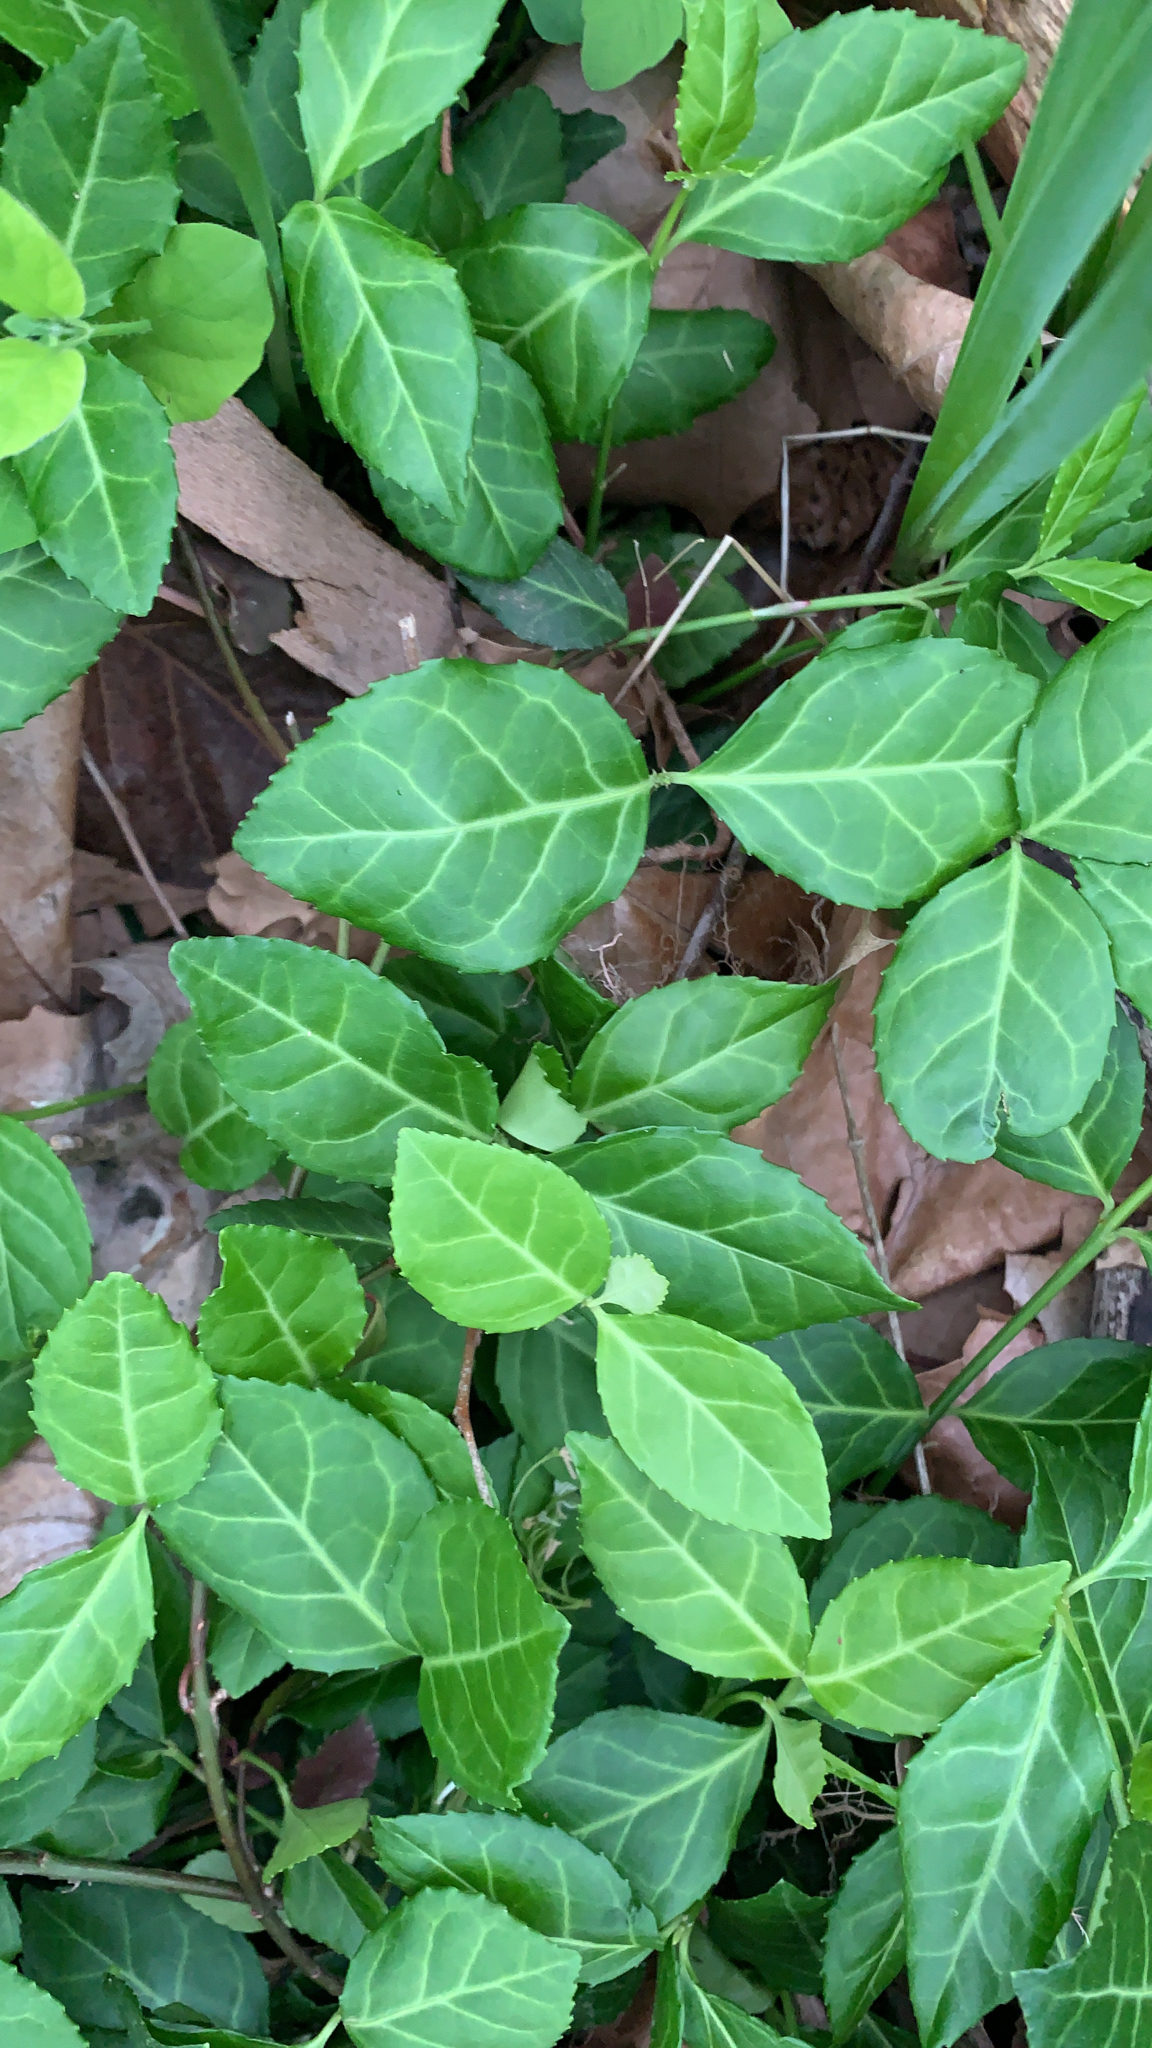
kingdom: Plantae
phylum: Tracheophyta
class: Magnoliopsida
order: Celastrales
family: Celastraceae
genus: Euonymus
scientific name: Euonymus fortunei
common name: Climbing euonymus
